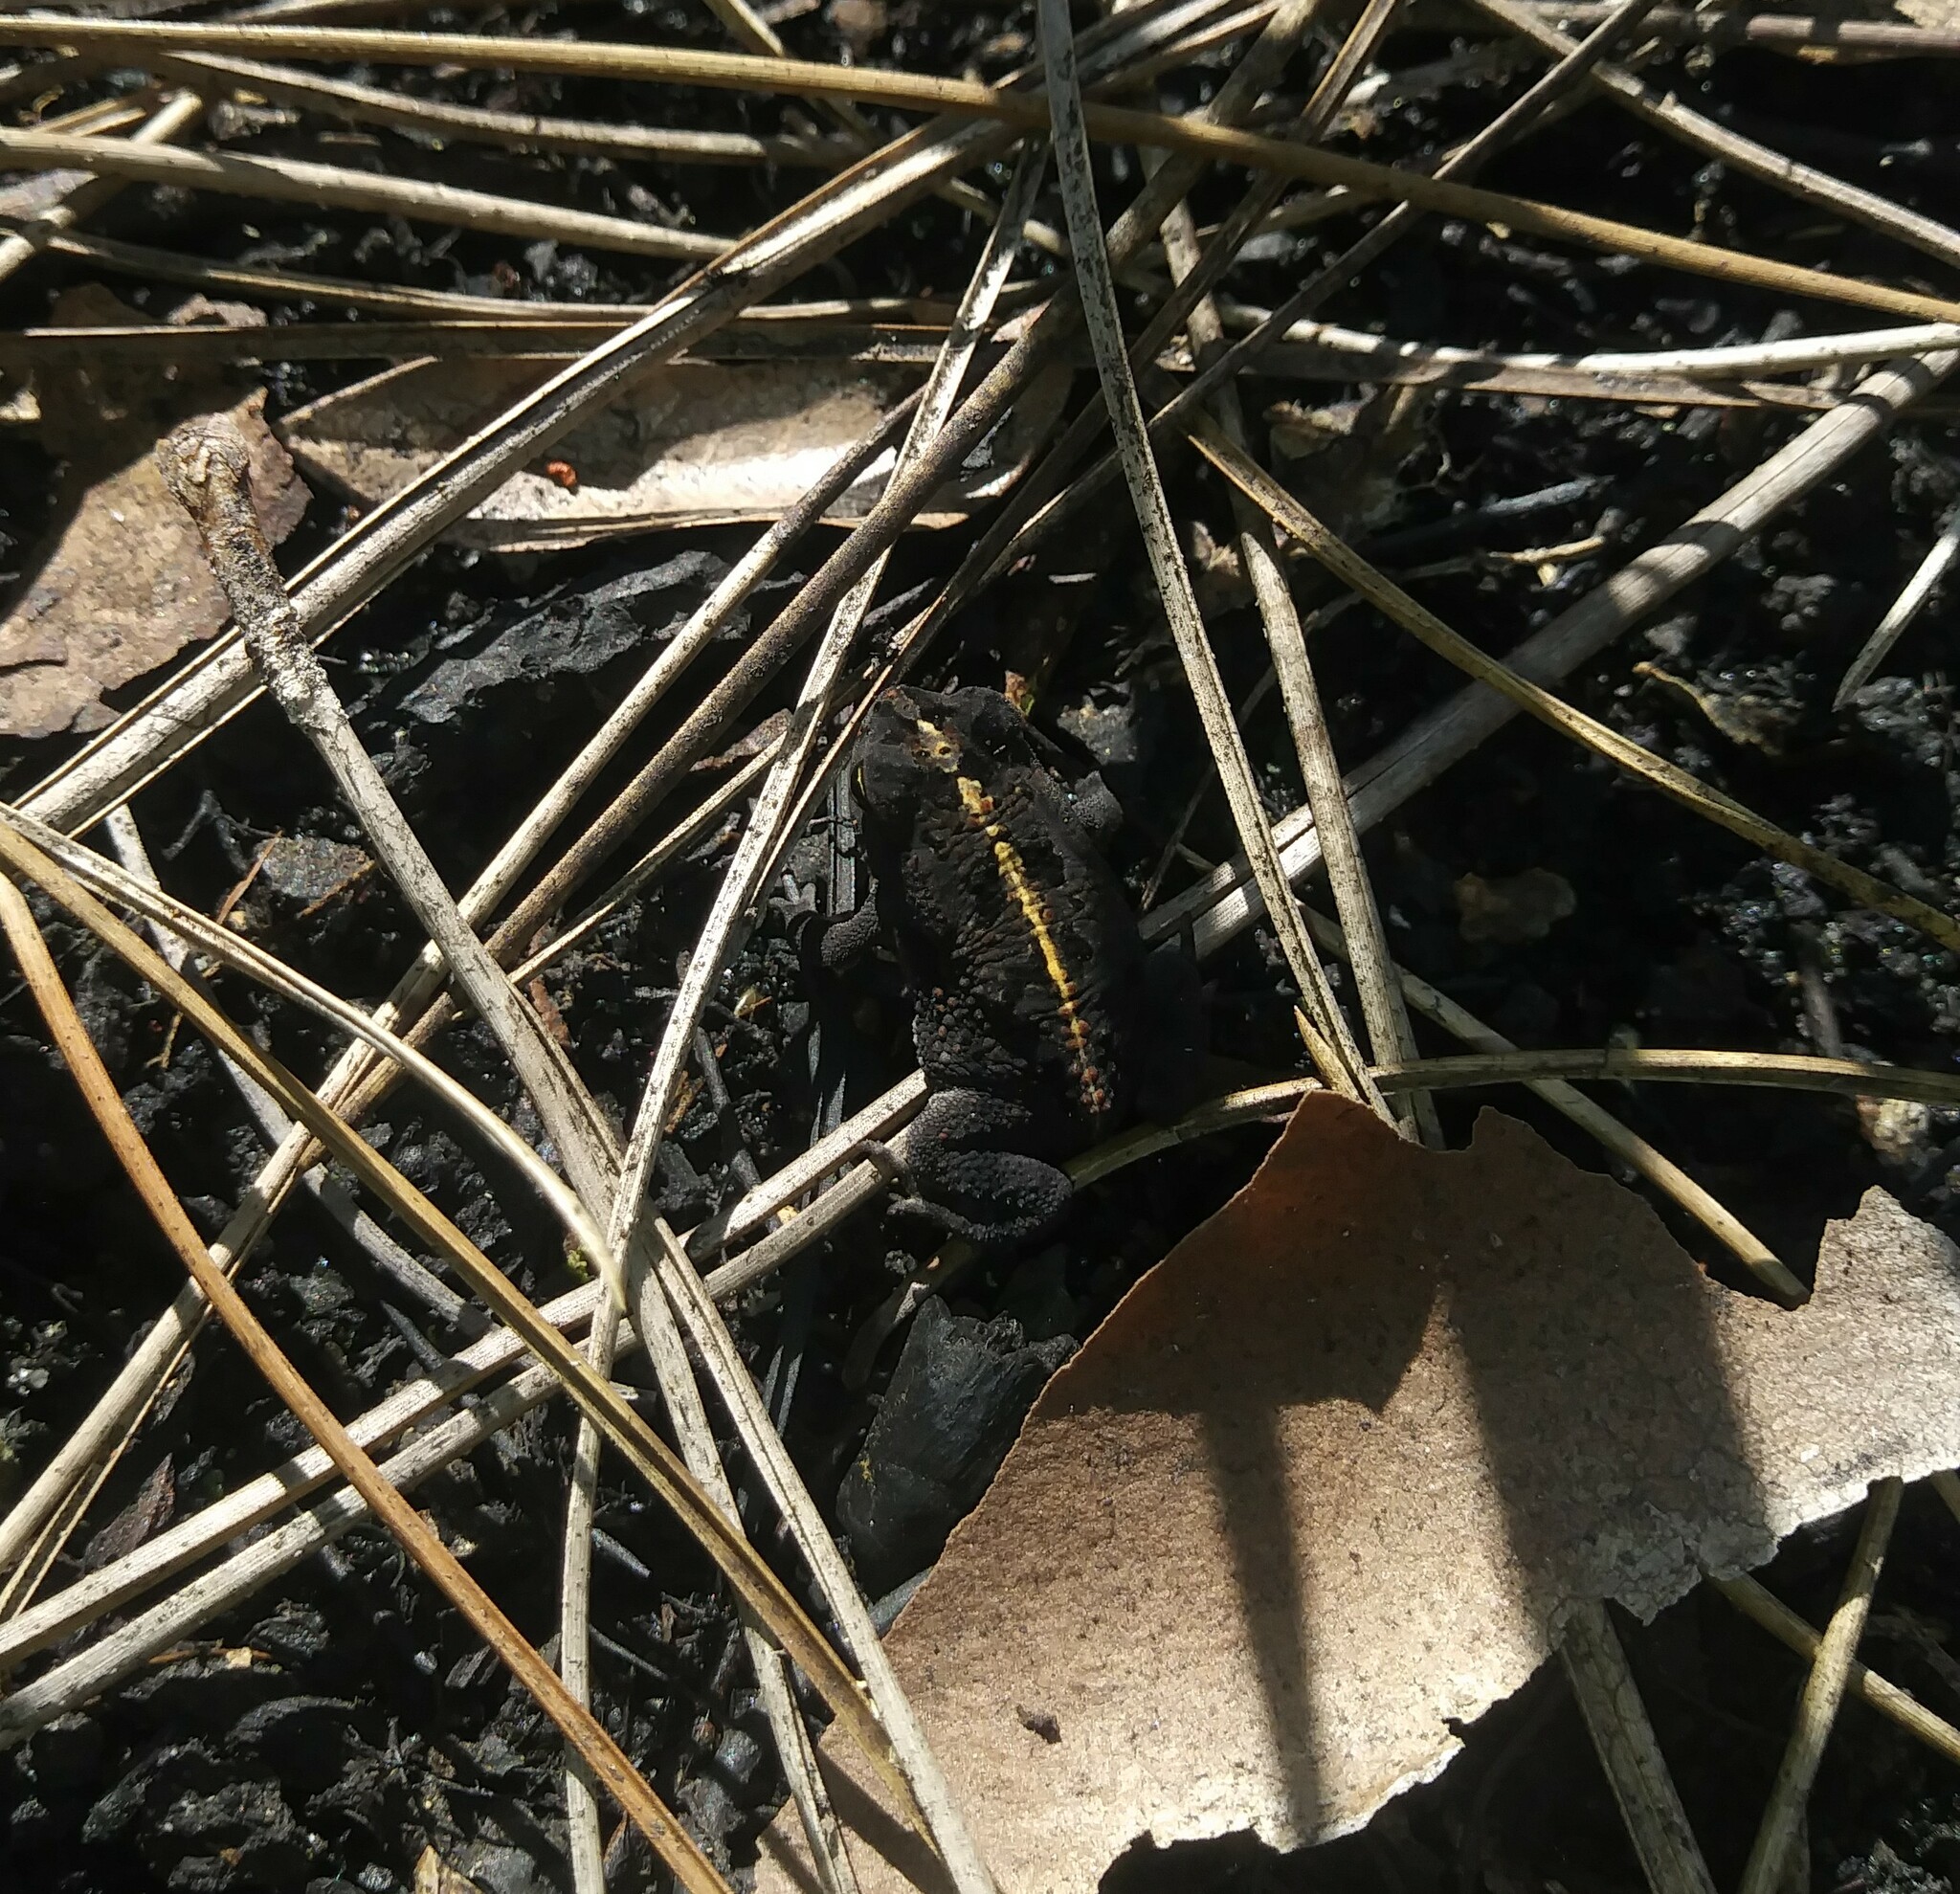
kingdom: Animalia
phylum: Chordata
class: Amphibia
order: Anura
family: Bufonidae
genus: Anaxyrus
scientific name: Anaxyrus quercicus
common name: Oak toad
